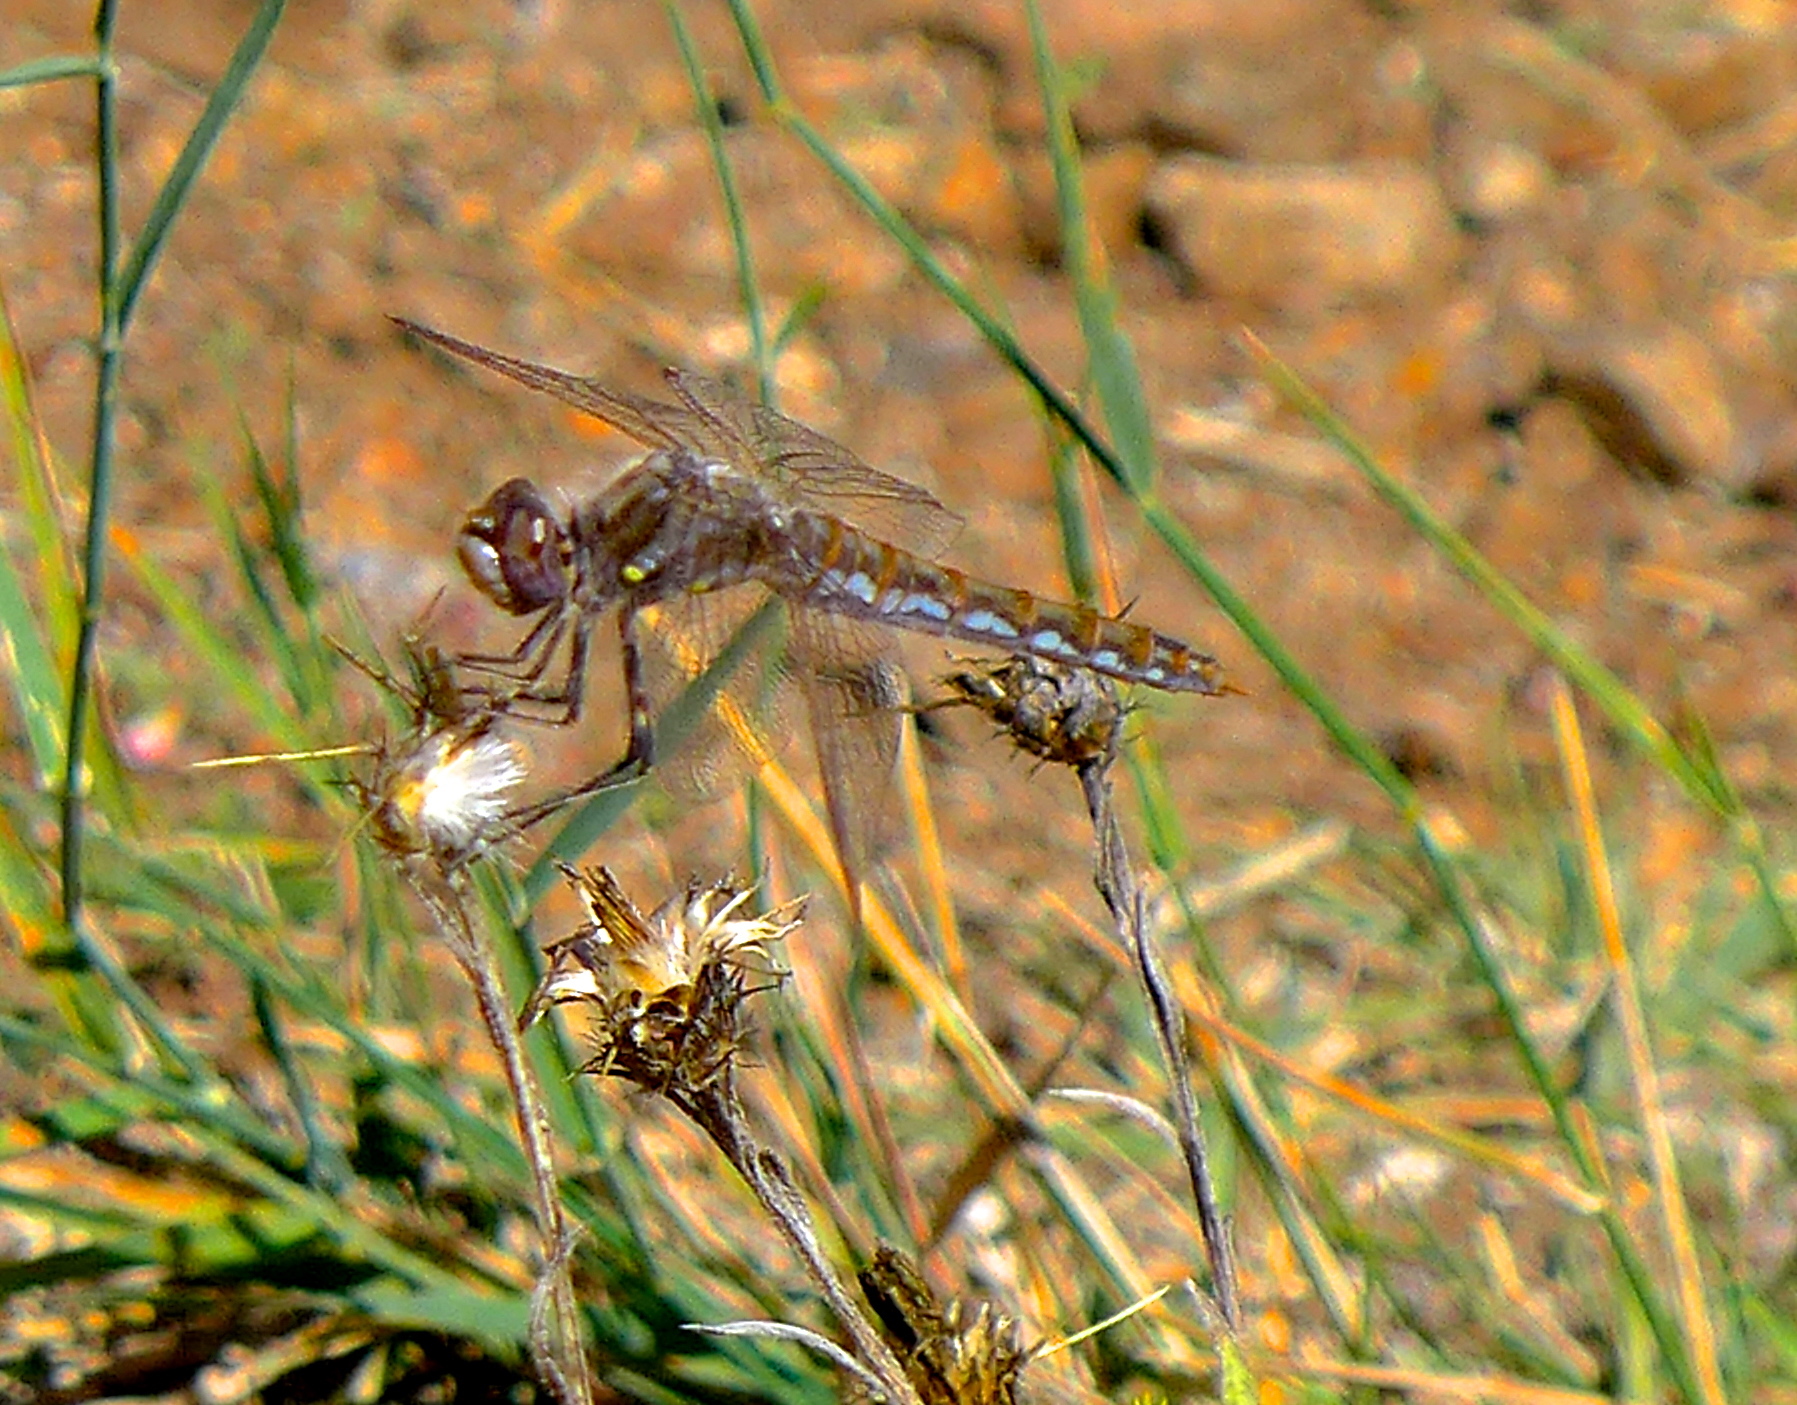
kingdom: Animalia
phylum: Arthropoda
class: Insecta
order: Odonata
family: Libellulidae
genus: Sympetrum
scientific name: Sympetrum corruptum
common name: Variegated meadowhawk
